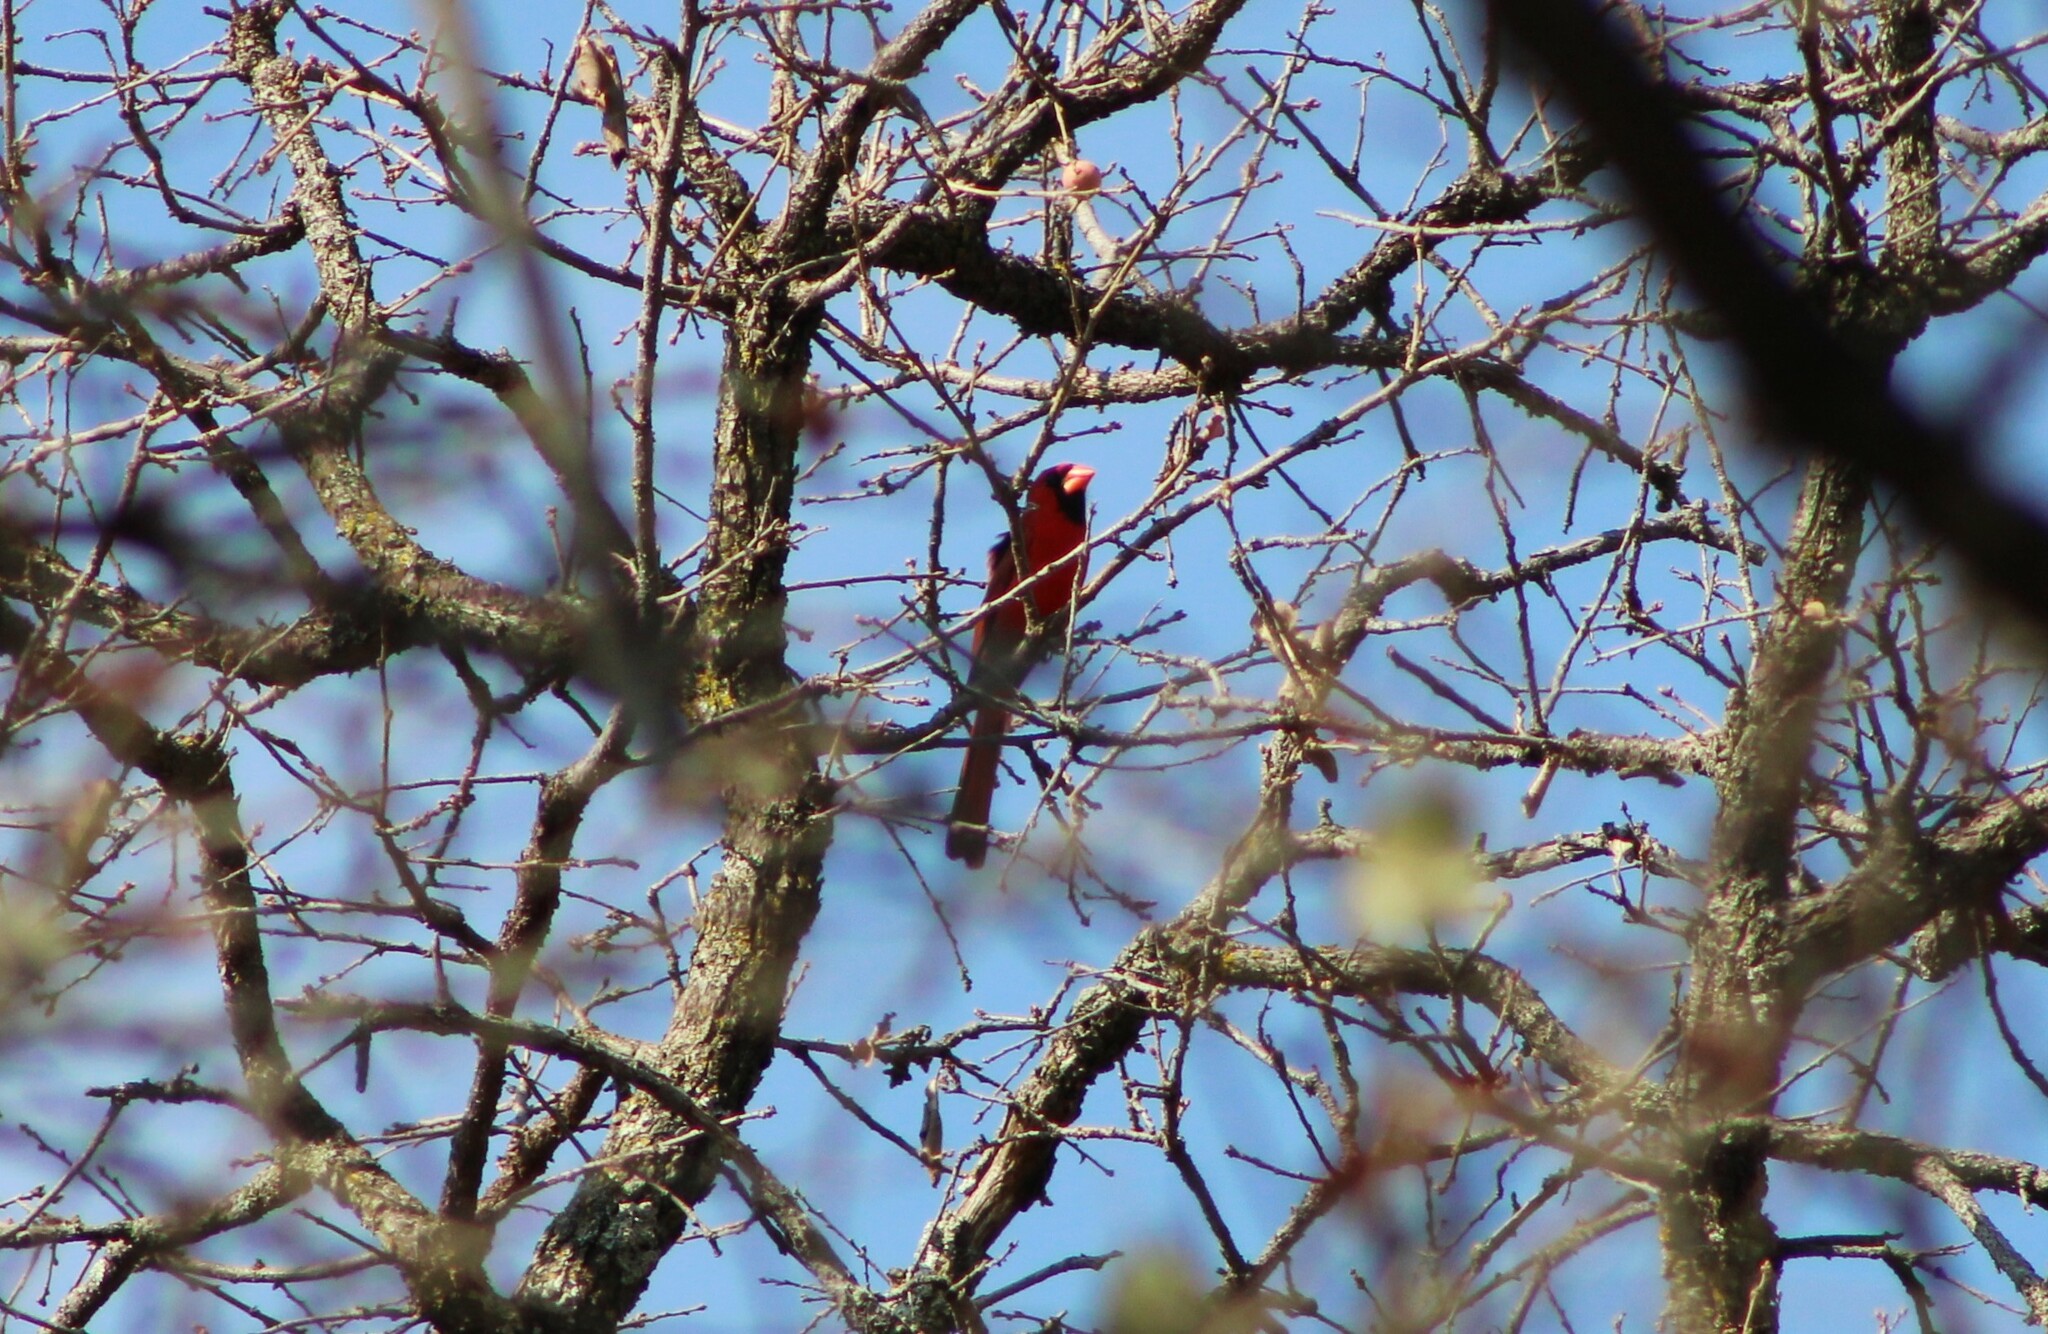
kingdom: Animalia
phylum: Chordata
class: Aves
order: Passeriformes
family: Cardinalidae
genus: Cardinalis
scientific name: Cardinalis cardinalis
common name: Northern cardinal
